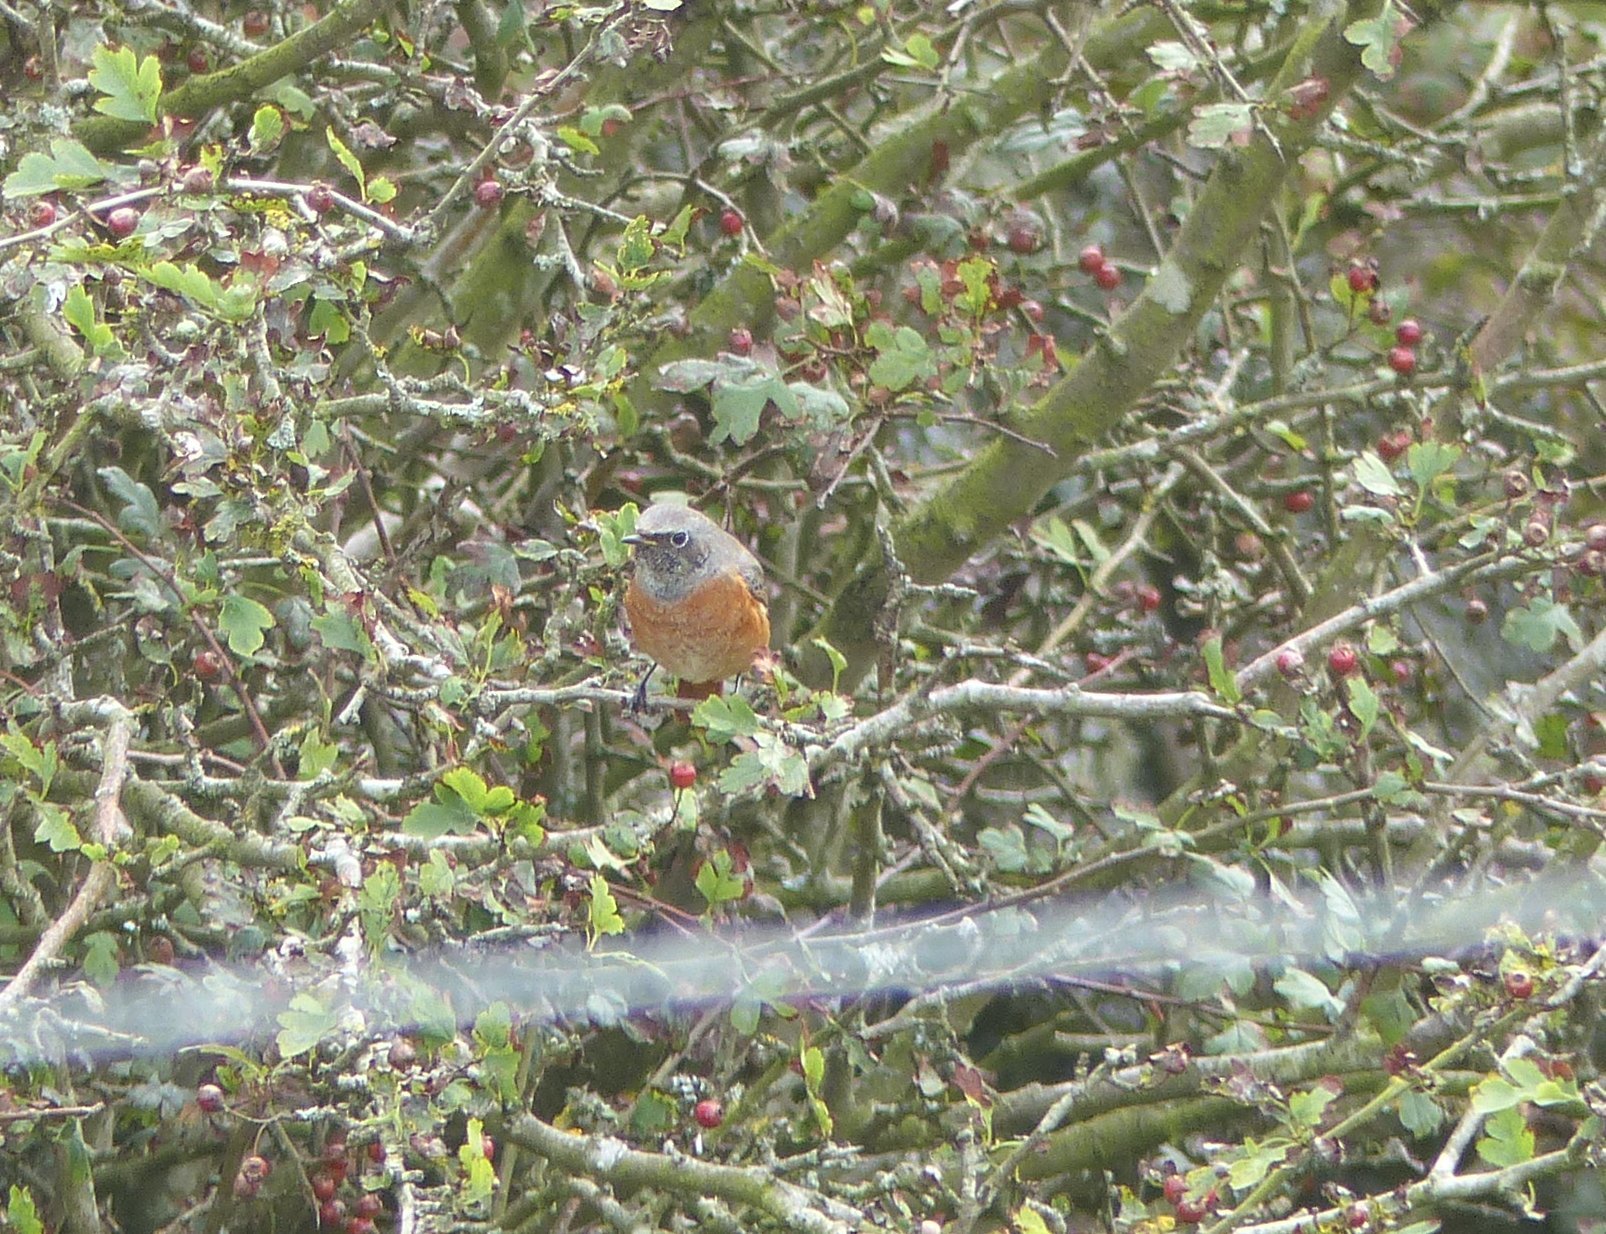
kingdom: Animalia
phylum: Chordata
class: Aves
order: Passeriformes
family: Muscicapidae
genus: Phoenicurus
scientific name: Phoenicurus phoenicurus
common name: Common redstart
